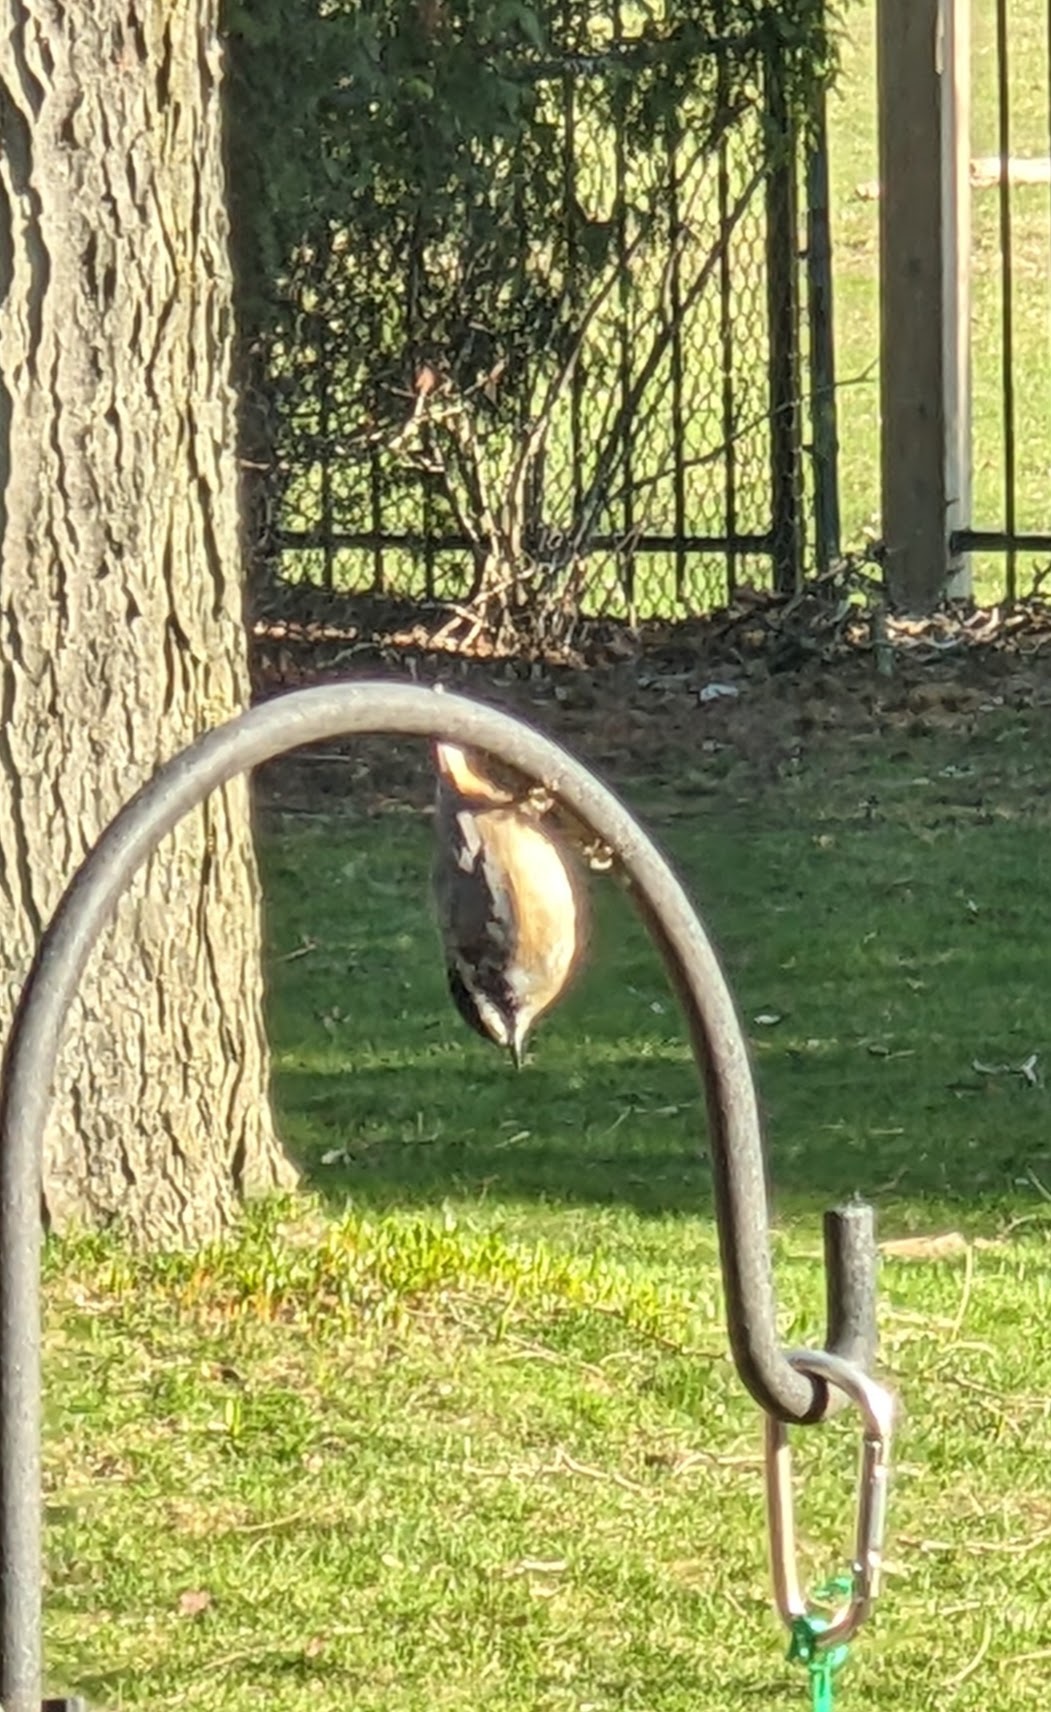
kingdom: Animalia
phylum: Chordata
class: Aves
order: Passeriformes
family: Sittidae
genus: Sitta
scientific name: Sitta canadensis
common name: Red-breasted nuthatch
